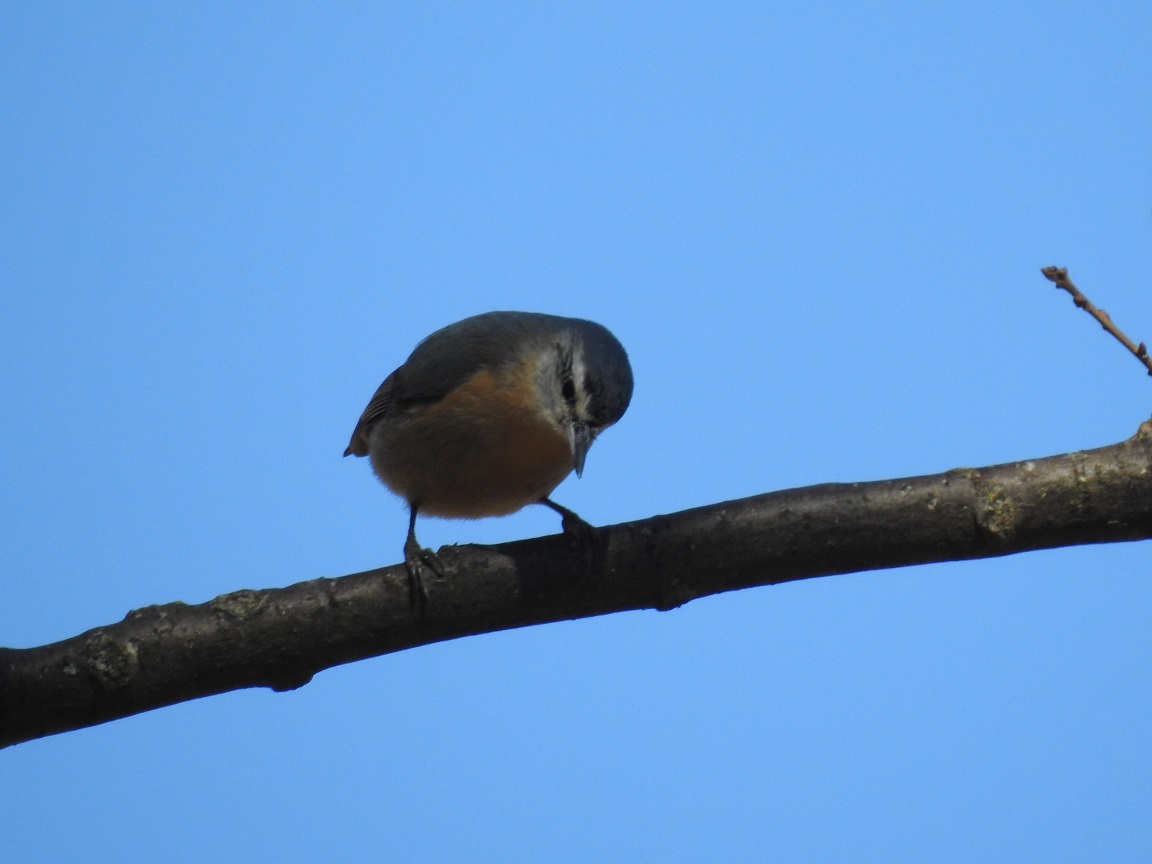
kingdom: Animalia
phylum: Chordata
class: Aves
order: Passeriformes
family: Sittidae
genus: Sitta
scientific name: Sitta ledanti
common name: Algerian nuthatch
